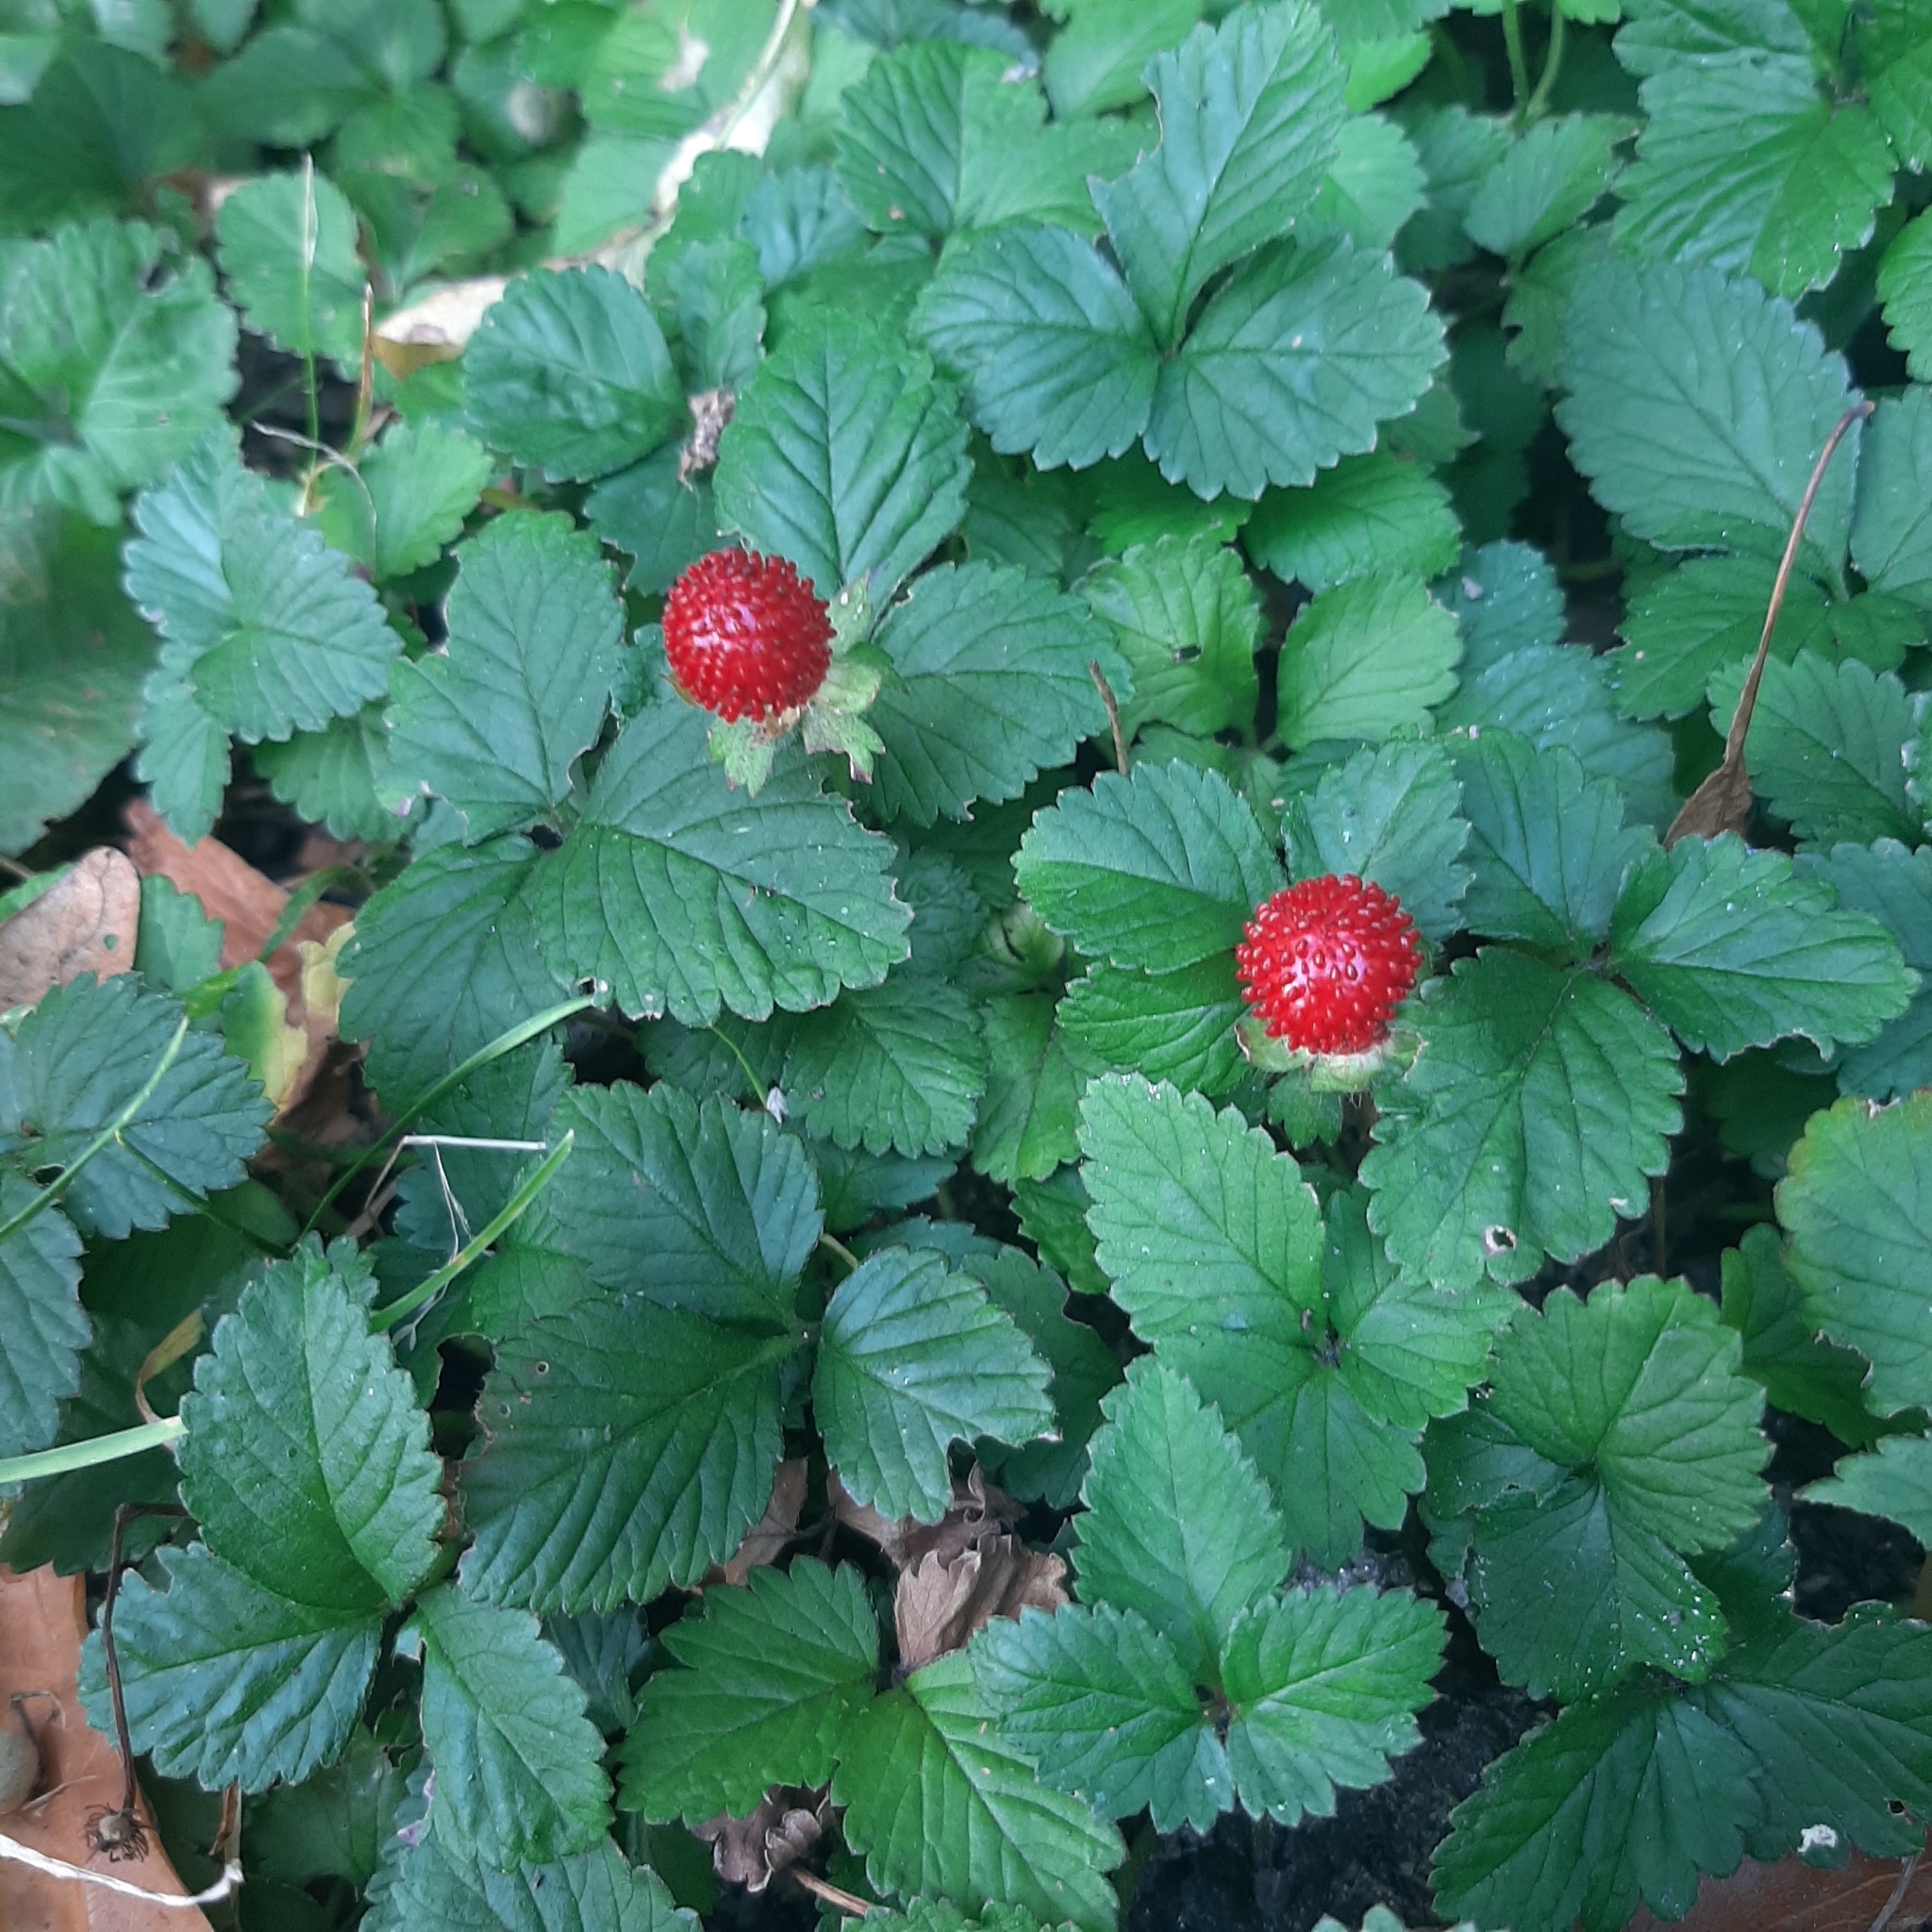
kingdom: Plantae
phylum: Tracheophyta
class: Magnoliopsida
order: Rosales
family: Rosaceae
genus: Potentilla
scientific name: Potentilla indica
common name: Yellow-flowered strawberry
